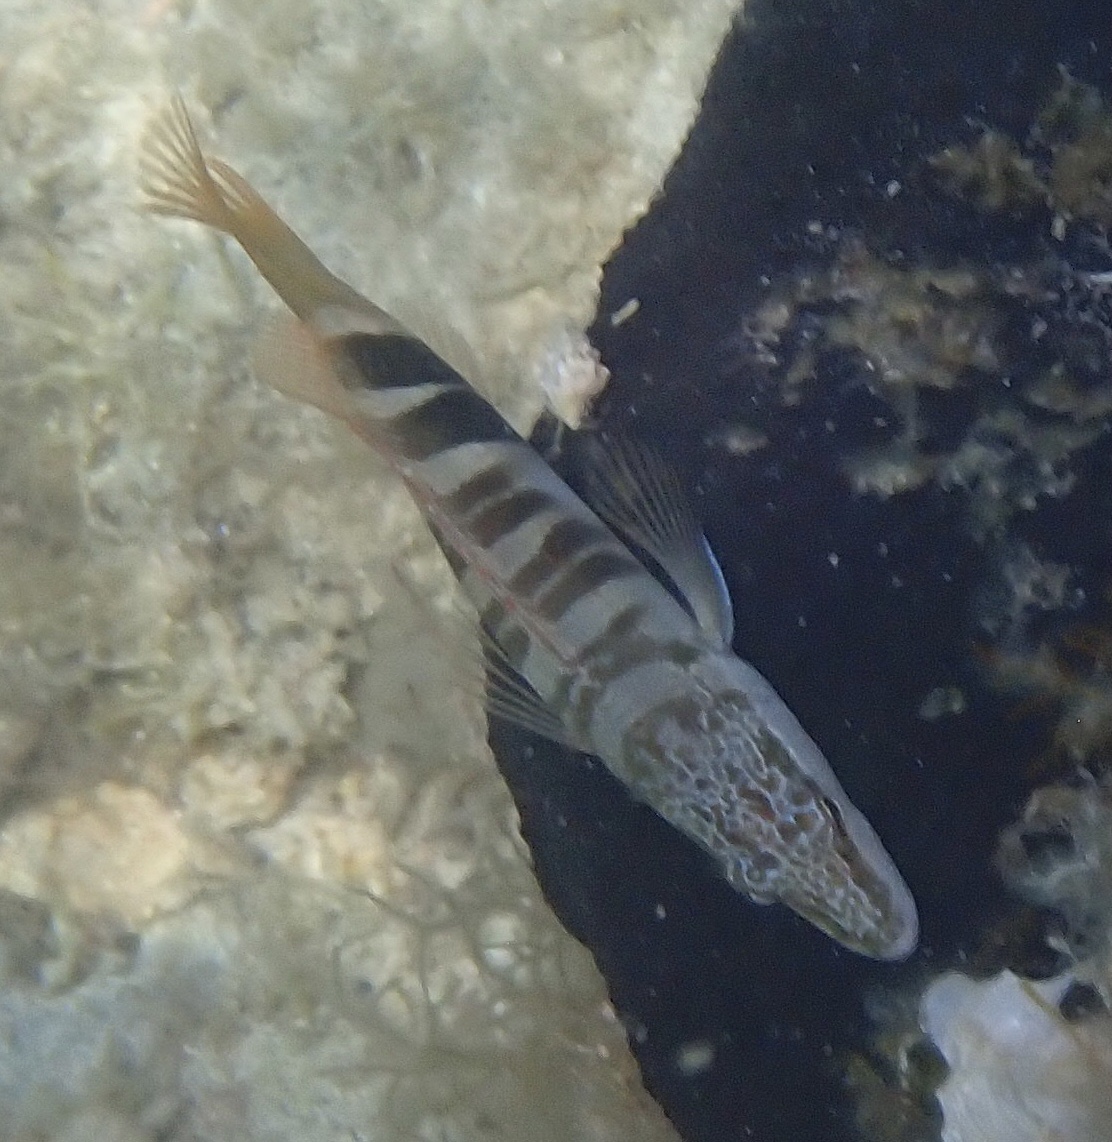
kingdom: Animalia
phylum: Chordata
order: Perciformes
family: Serranidae
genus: Serranus
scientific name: Serranus scriba
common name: Painted comber
